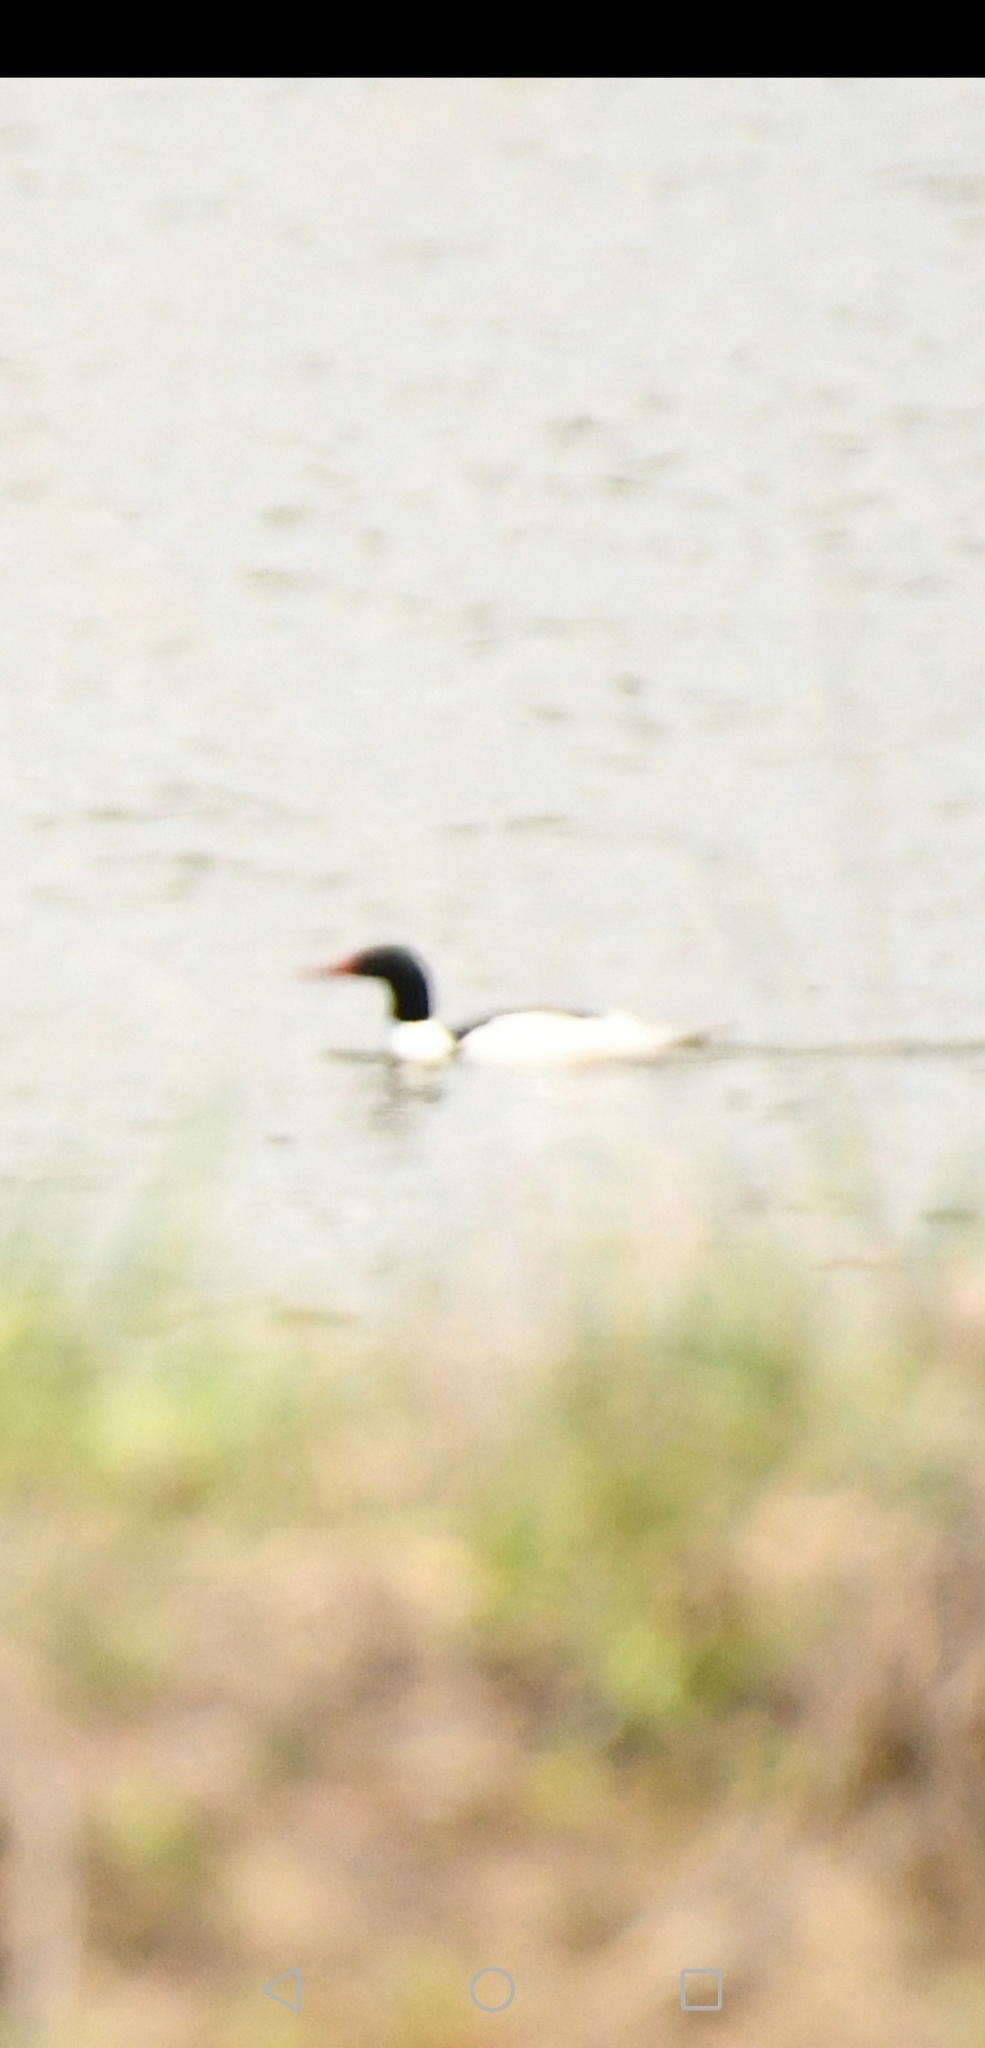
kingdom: Animalia
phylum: Chordata
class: Aves
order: Anseriformes
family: Anatidae
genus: Mergus
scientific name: Mergus merganser
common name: Common merganser
